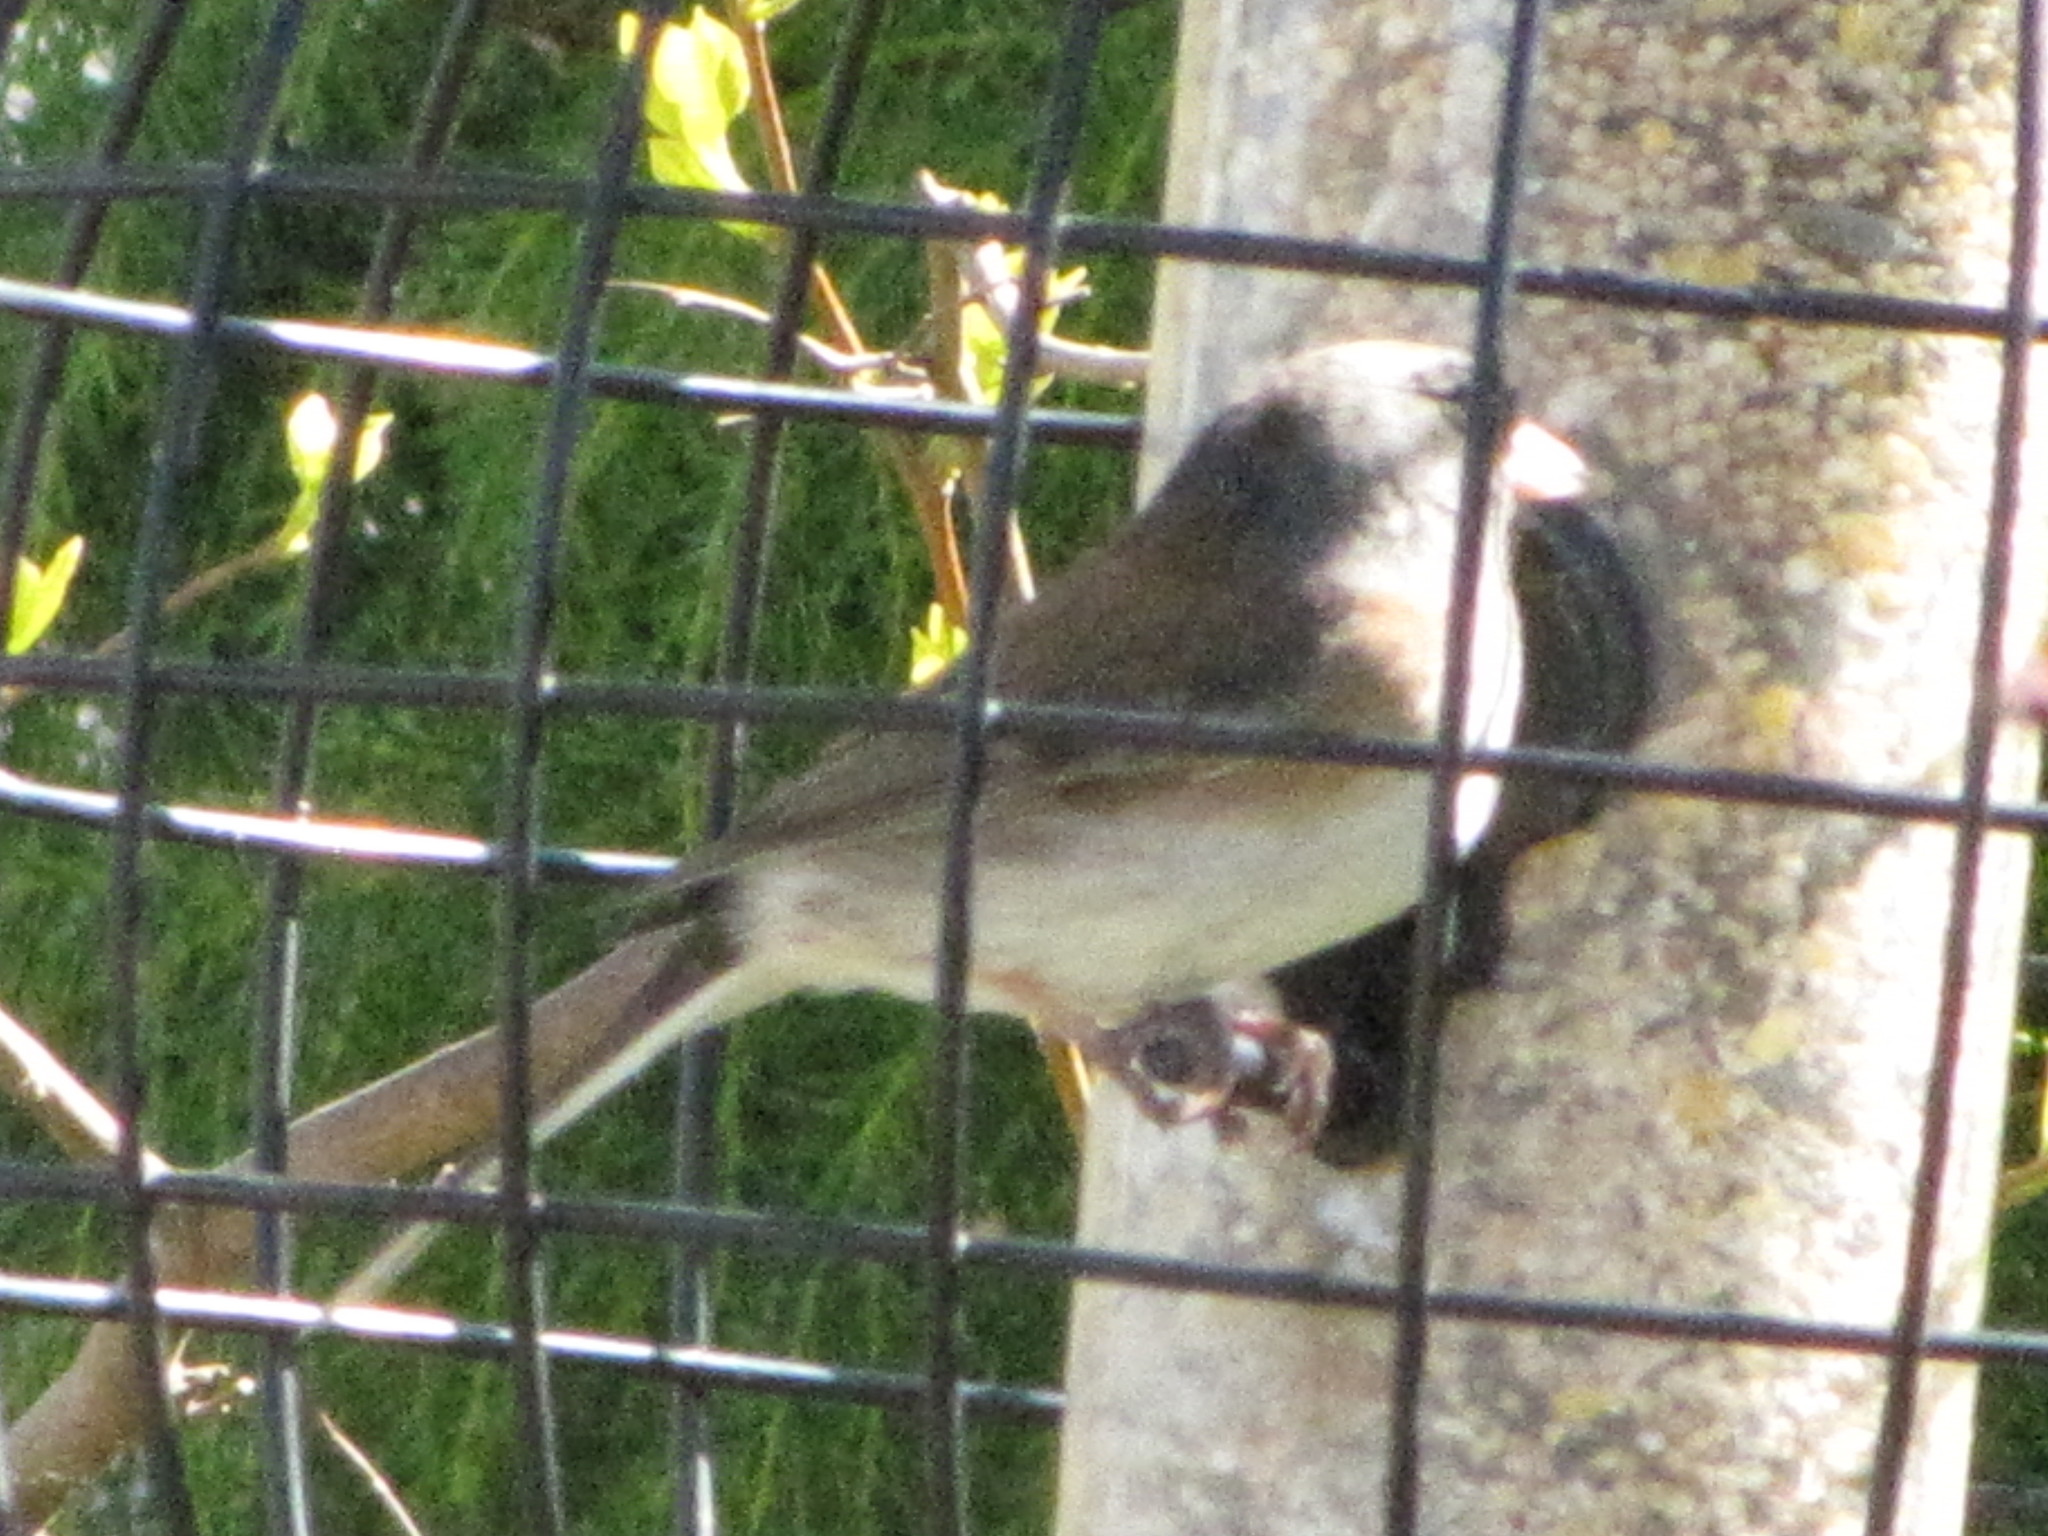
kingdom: Animalia
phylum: Chordata
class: Aves
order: Passeriformes
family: Passerellidae
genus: Junco
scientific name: Junco hyemalis
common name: Dark-eyed junco
